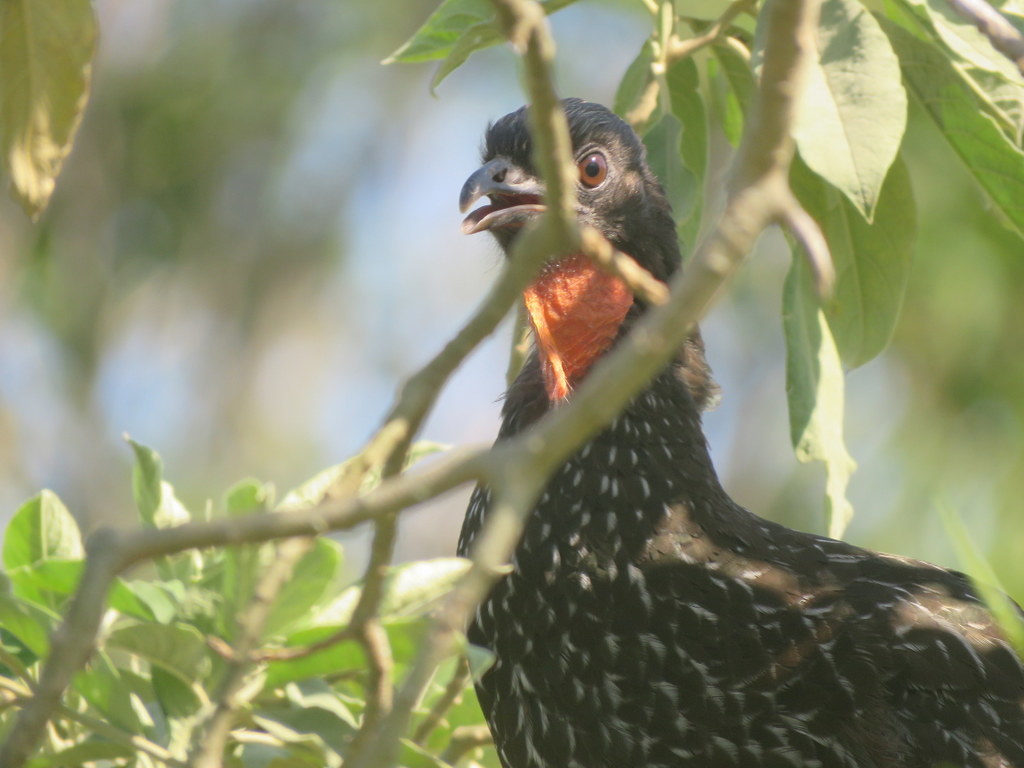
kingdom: Animalia
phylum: Chordata
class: Aves
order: Galliformes
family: Cracidae
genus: Penelope
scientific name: Penelope obscura
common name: Dusky-legged guan
